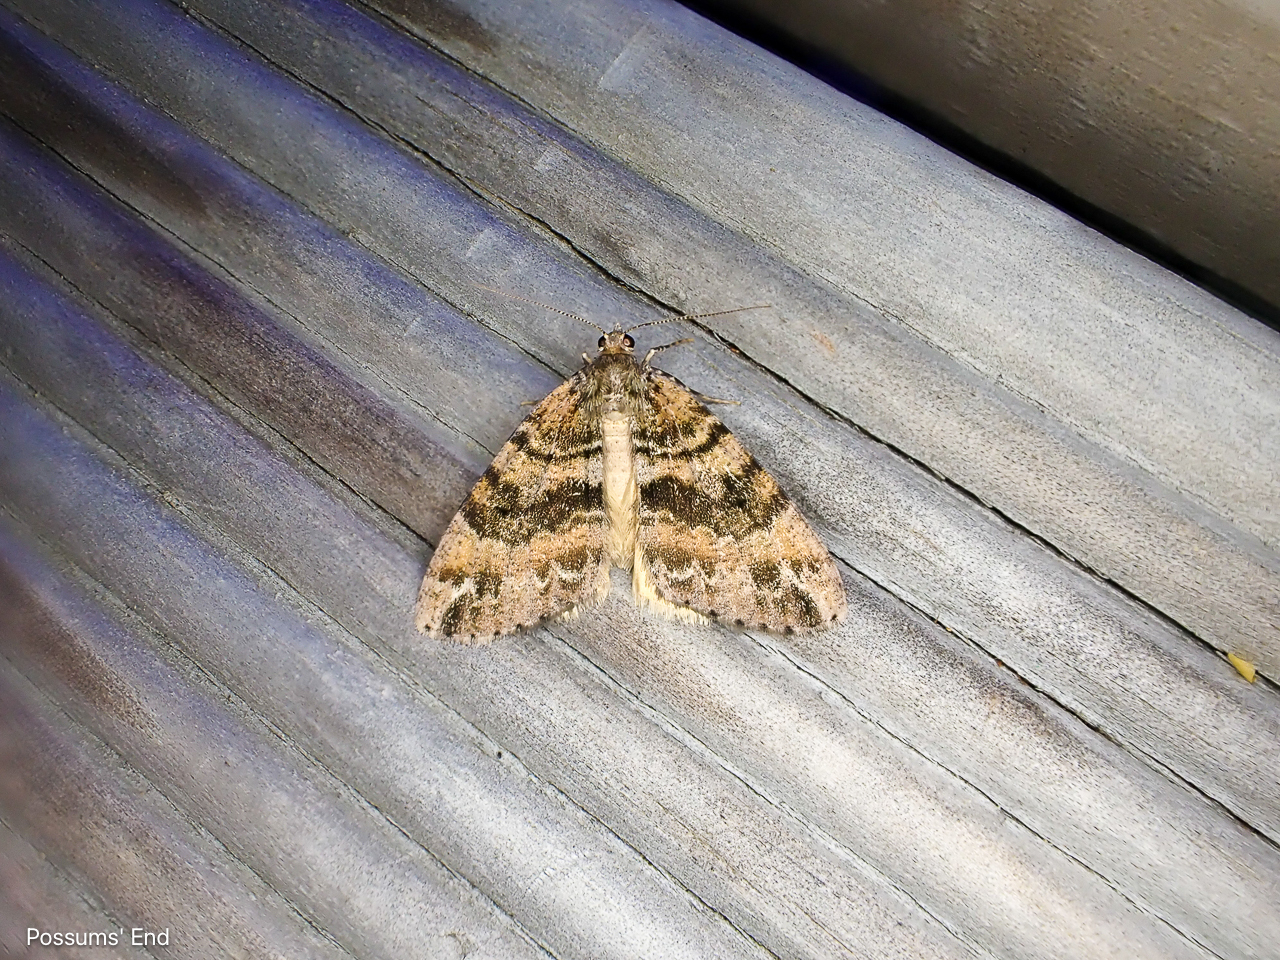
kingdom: Animalia
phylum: Arthropoda
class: Insecta
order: Lepidoptera
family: Geometridae
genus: Pseudocoremia
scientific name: Pseudocoremia productata
